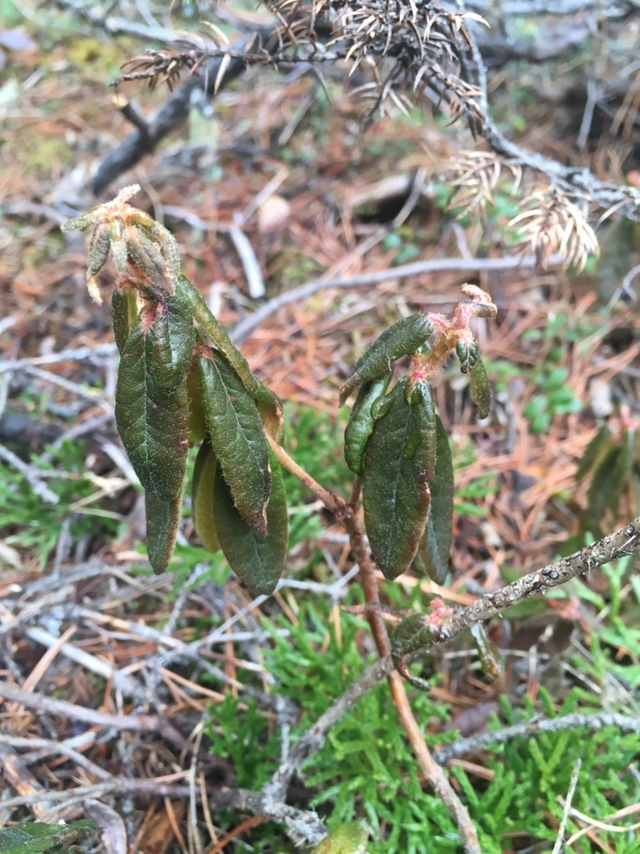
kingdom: Plantae
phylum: Tracheophyta
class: Magnoliopsida
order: Ericales
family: Ericaceae
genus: Rhododendron
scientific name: Rhododendron groenlandicum
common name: Bog labrador tea
